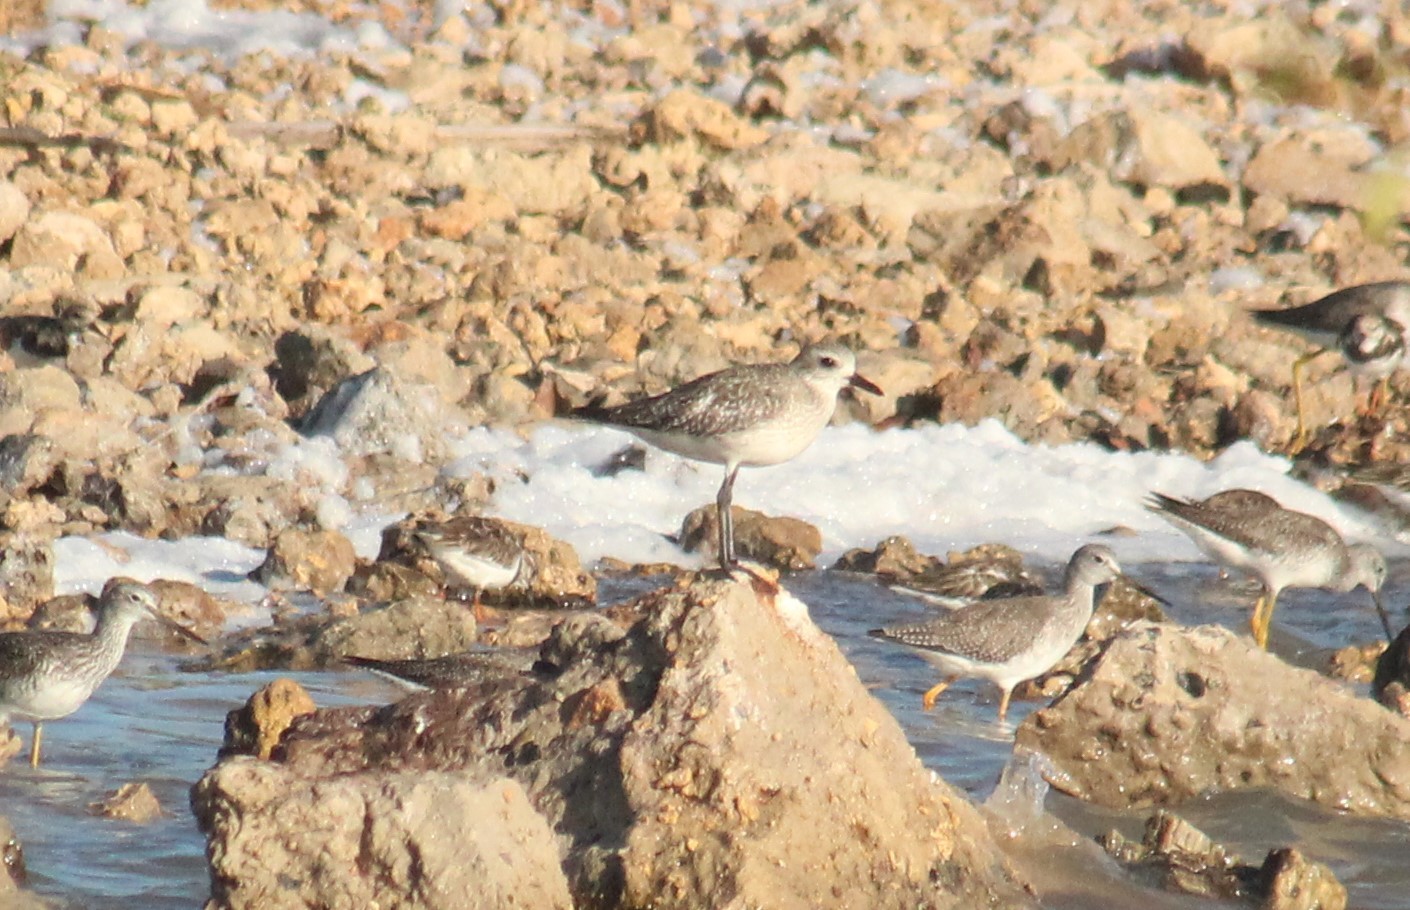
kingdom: Animalia
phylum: Chordata
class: Aves
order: Charadriiformes
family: Charadriidae
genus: Pluvialis
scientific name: Pluvialis squatarola
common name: Grey plover
